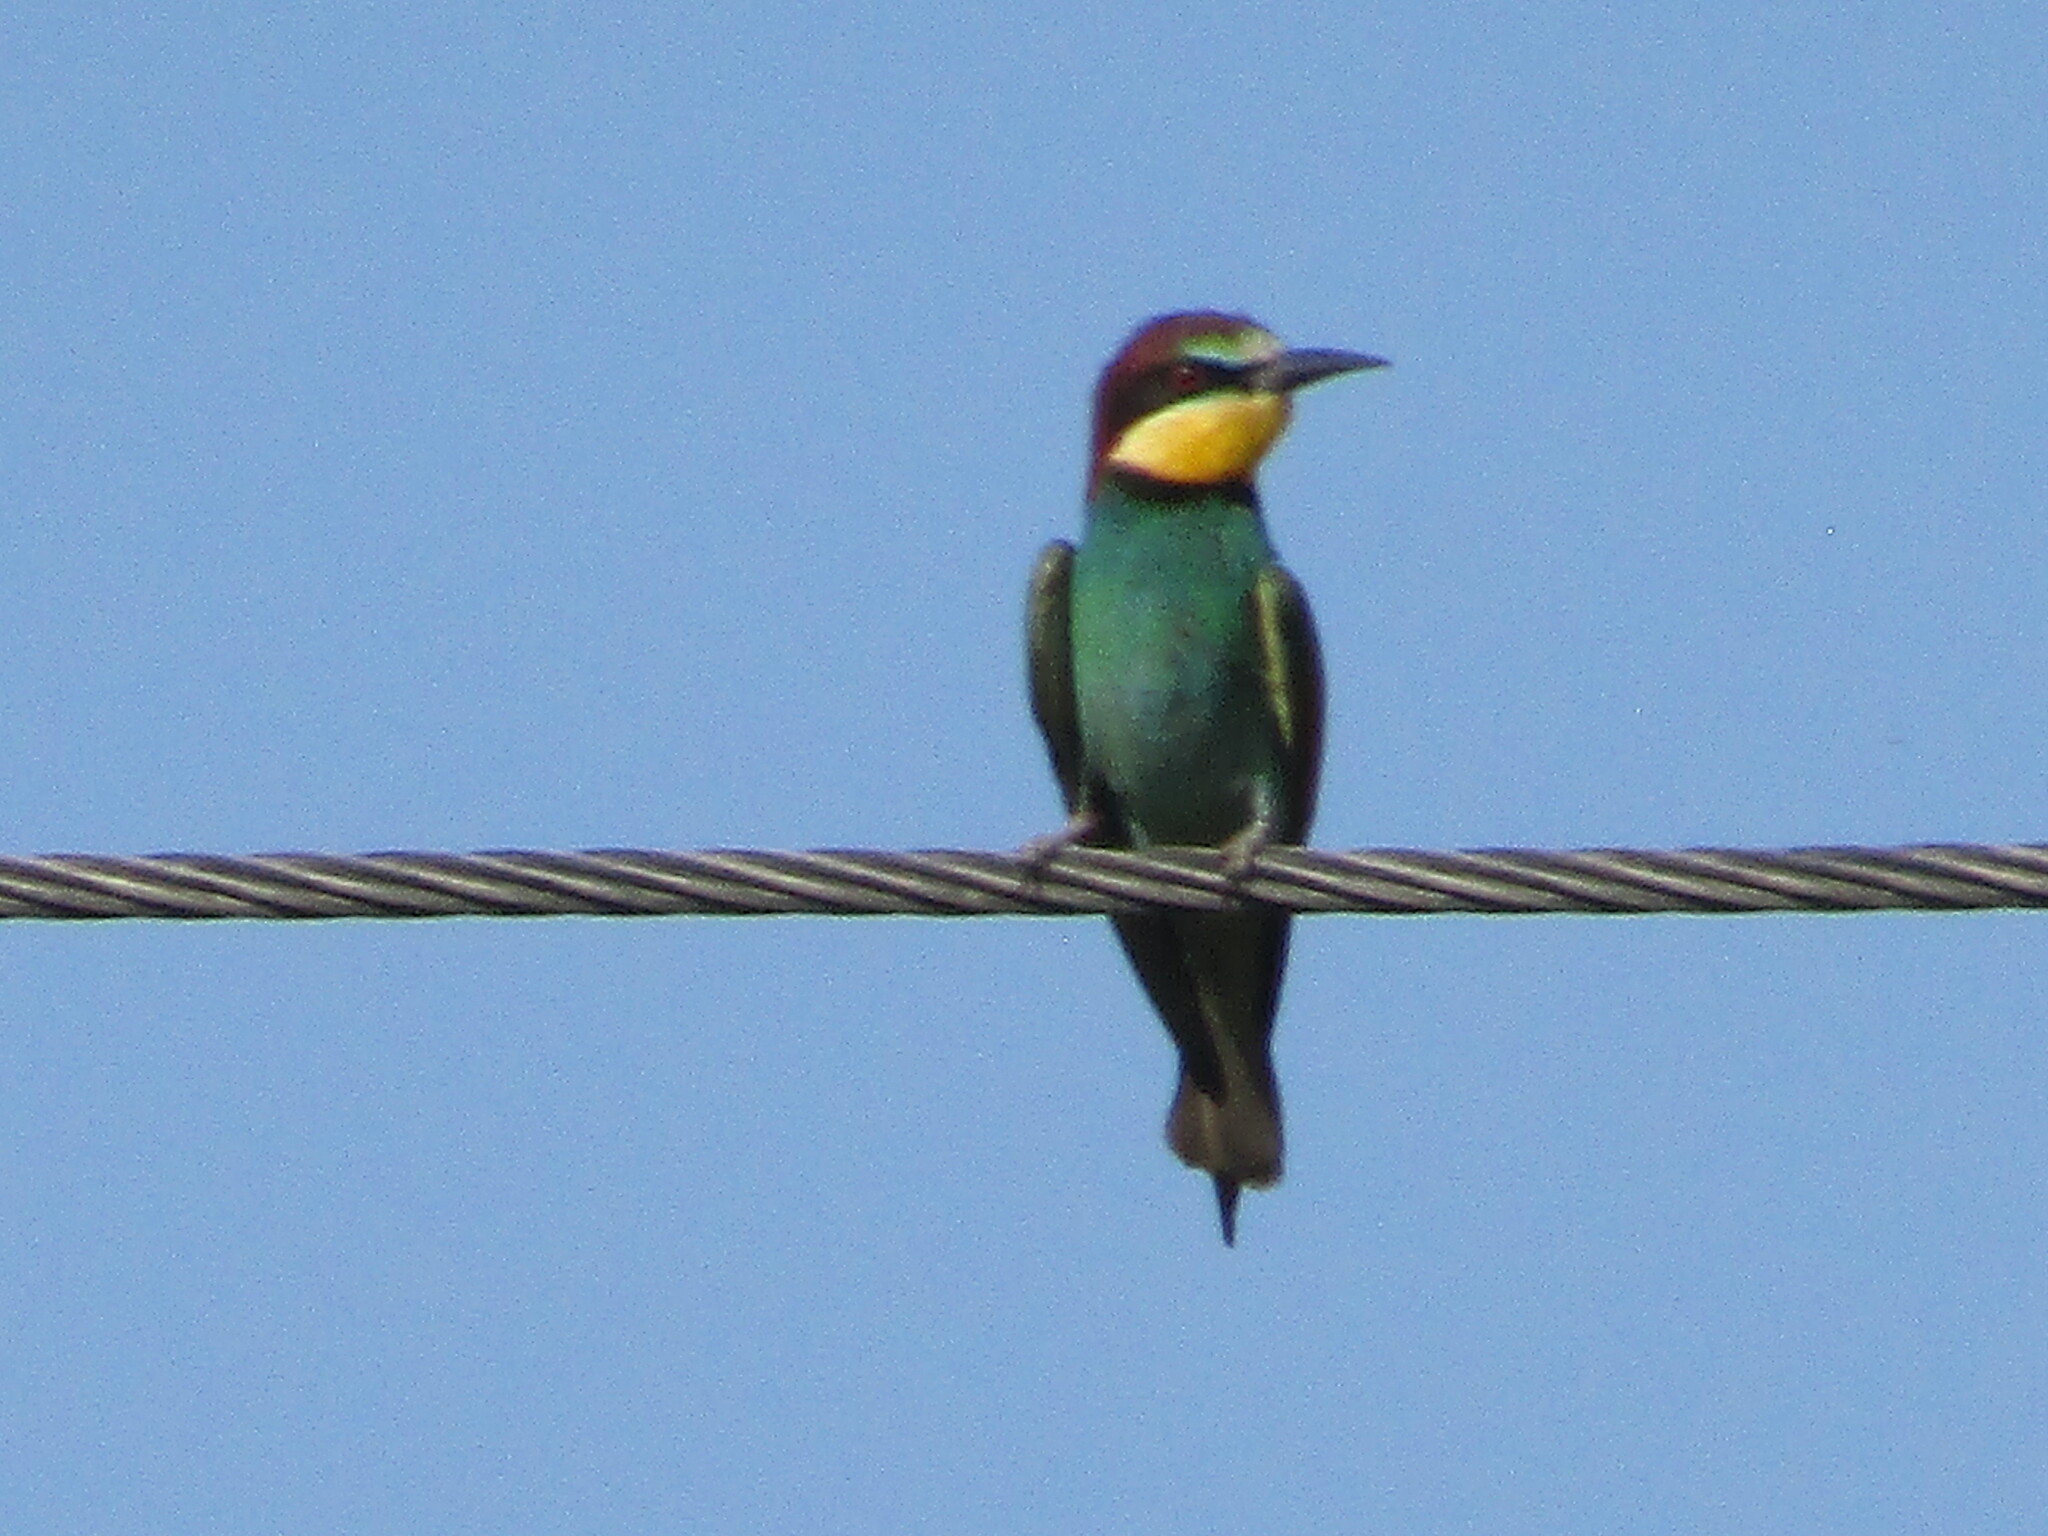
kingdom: Animalia
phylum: Chordata
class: Aves
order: Coraciiformes
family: Meropidae
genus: Merops
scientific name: Merops apiaster
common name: European bee-eater
